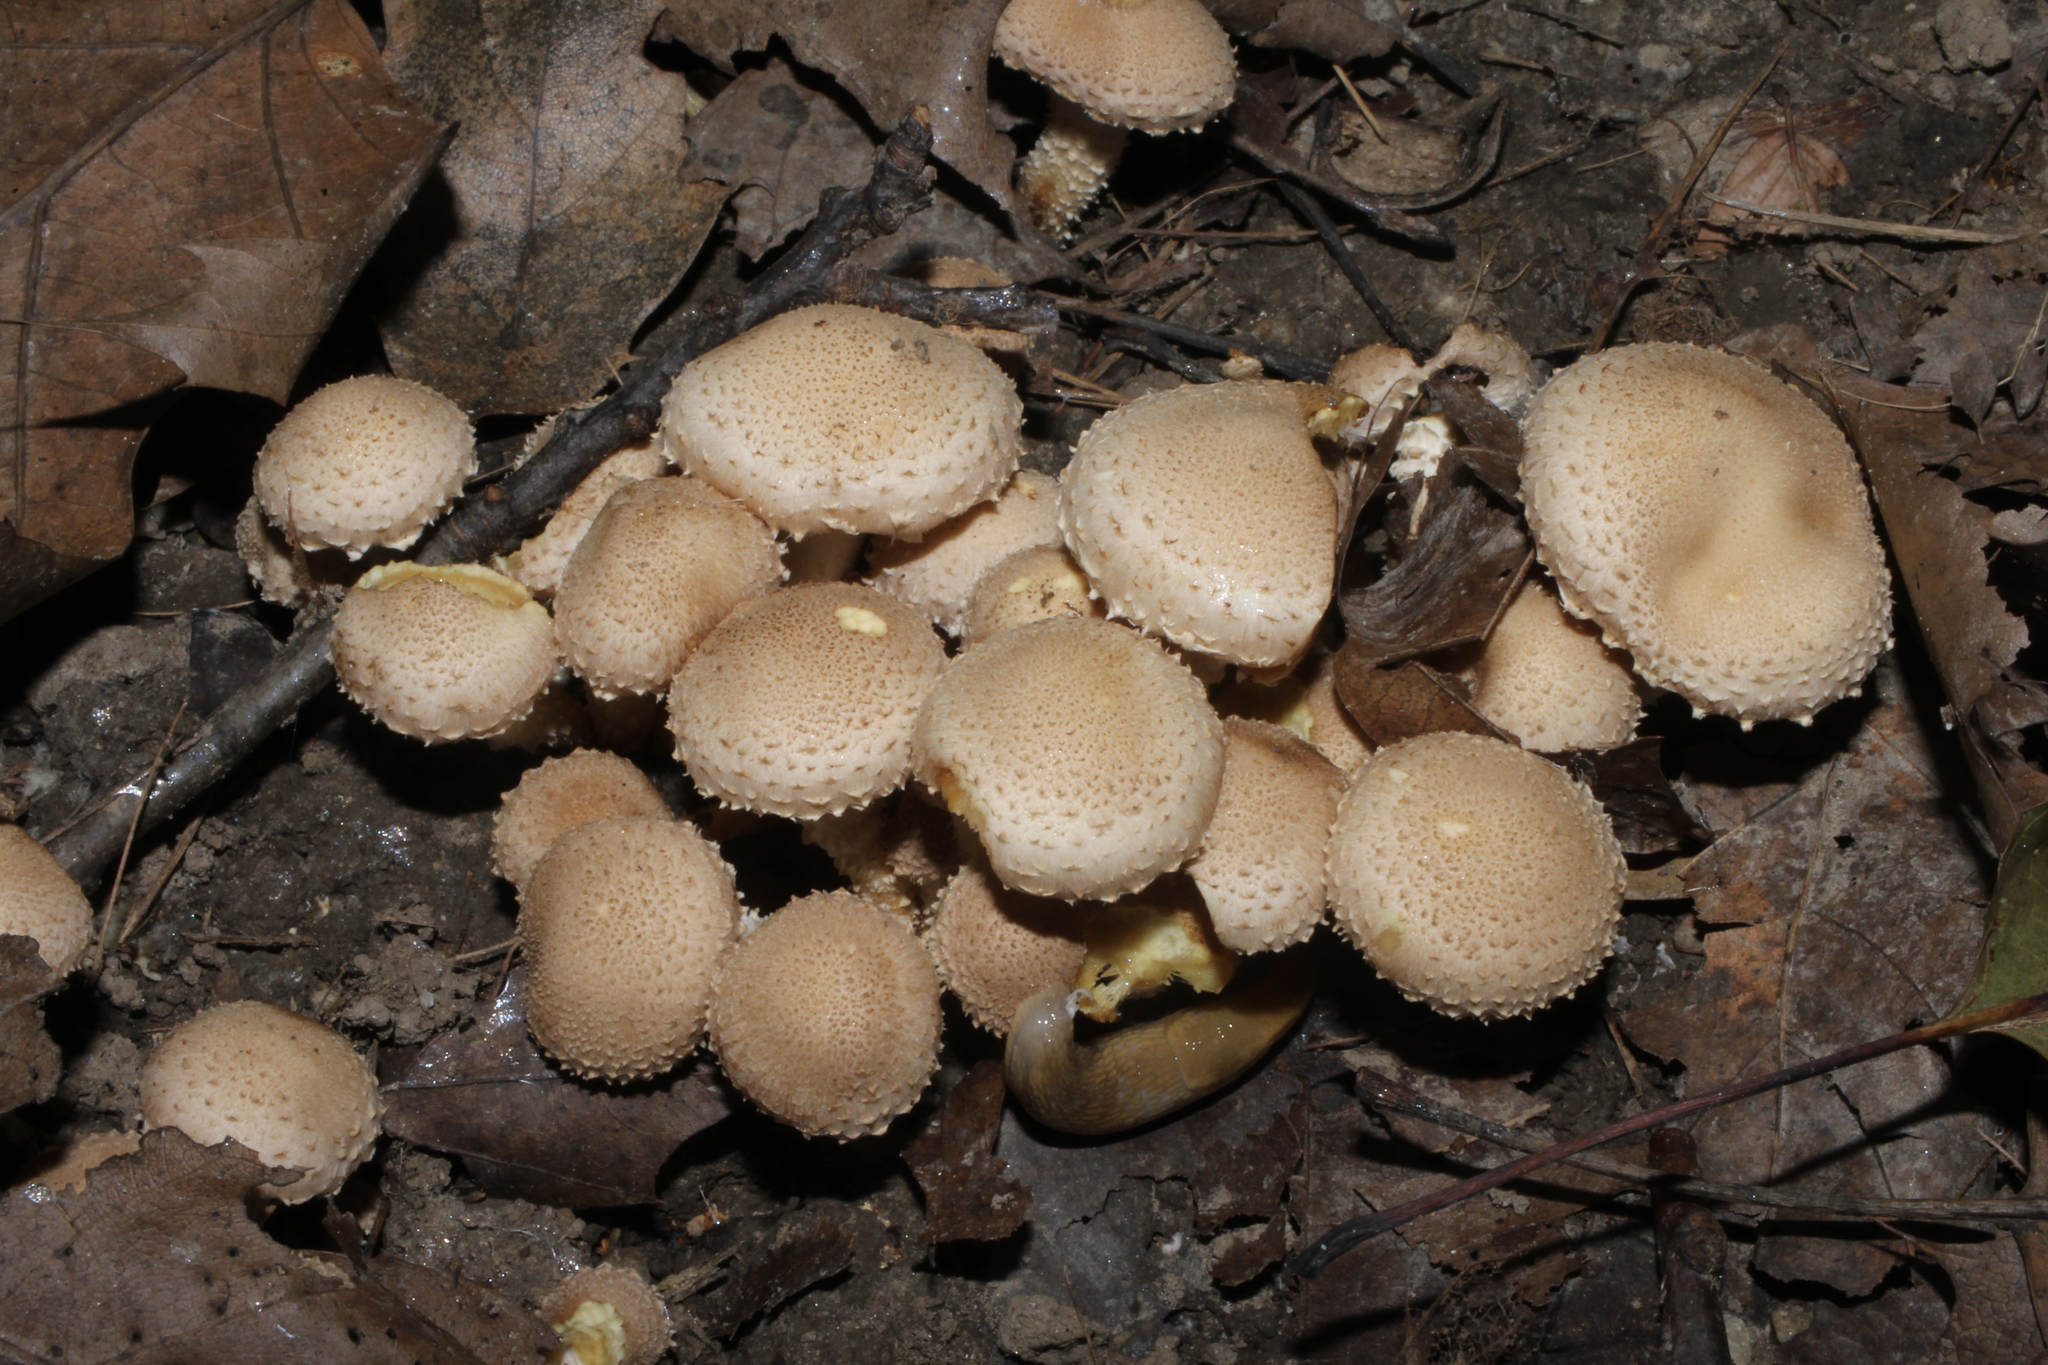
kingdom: Fungi
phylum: Basidiomycota
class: Agaricomycetes
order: Agaricales
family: Strophariaceae
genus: Pholiota
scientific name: Pholiota terrestris
